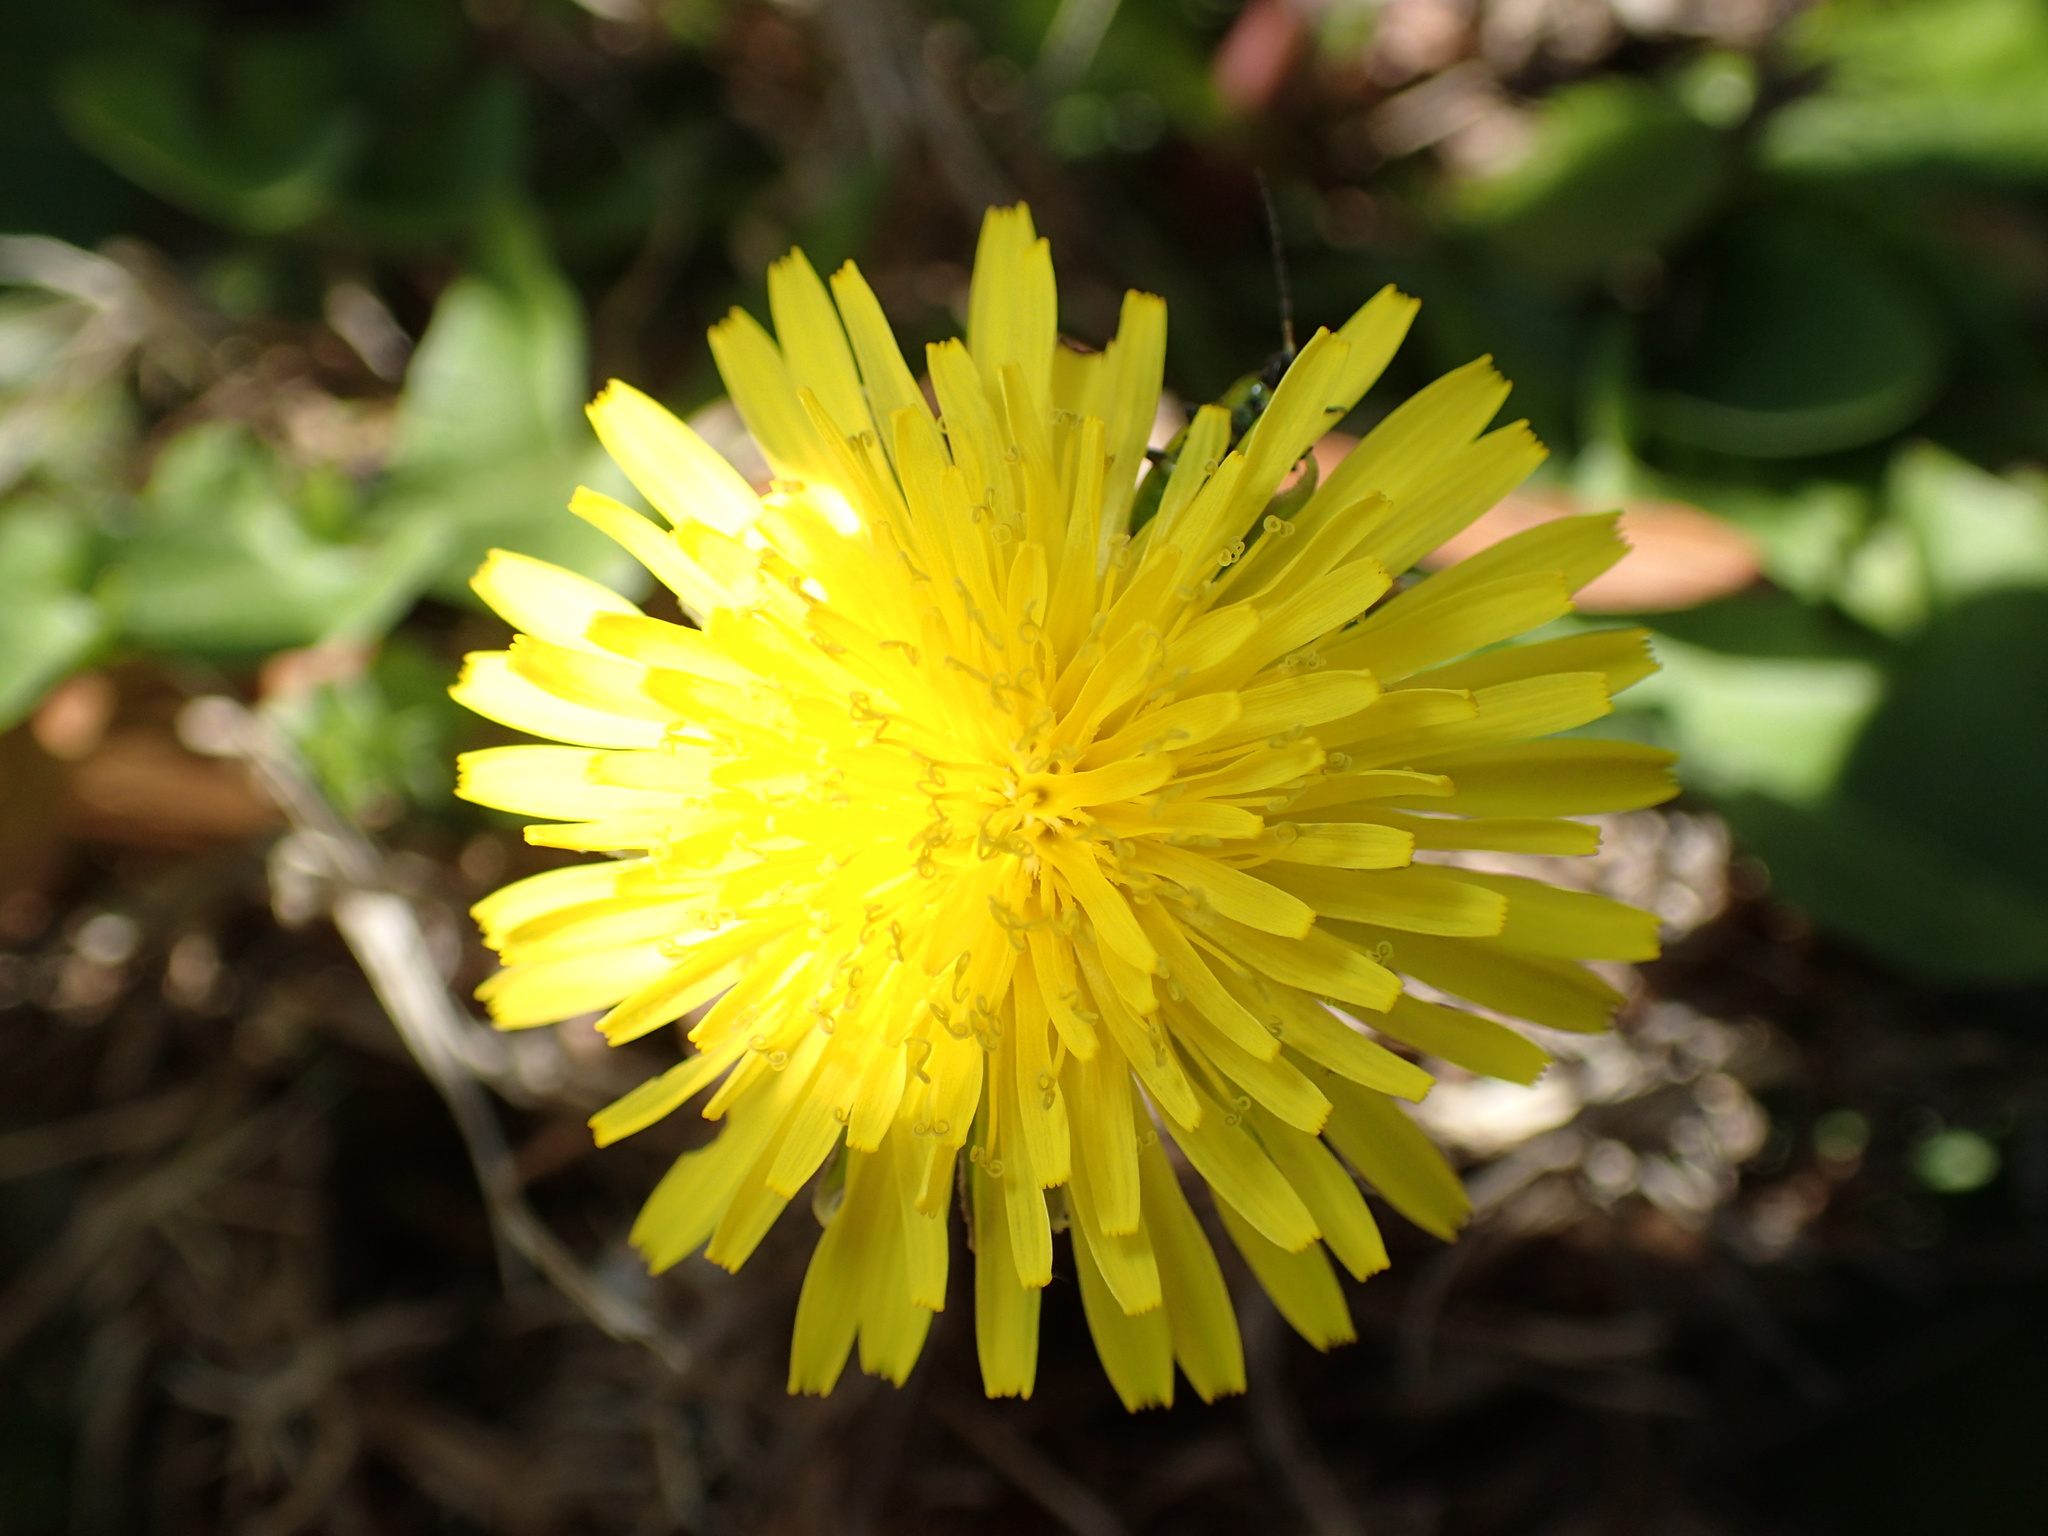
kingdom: Plantae
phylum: Tracheophyta
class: Magnoliopsida
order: Asterales
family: Asteraceae
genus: Taraxacum
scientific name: Taraxacum officinale
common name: Common dandelion
